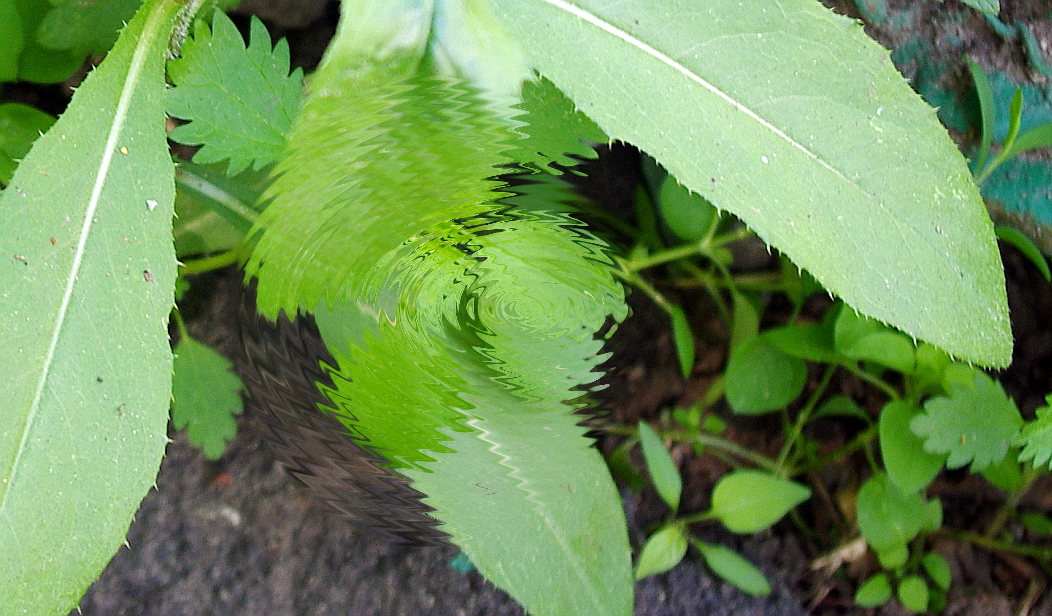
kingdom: Plantae
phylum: Tracheophyta
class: Magnoliopsida
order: Asterales
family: Asteraceae
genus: Cirsium
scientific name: Cirsium arvense
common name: Creeping thistle
